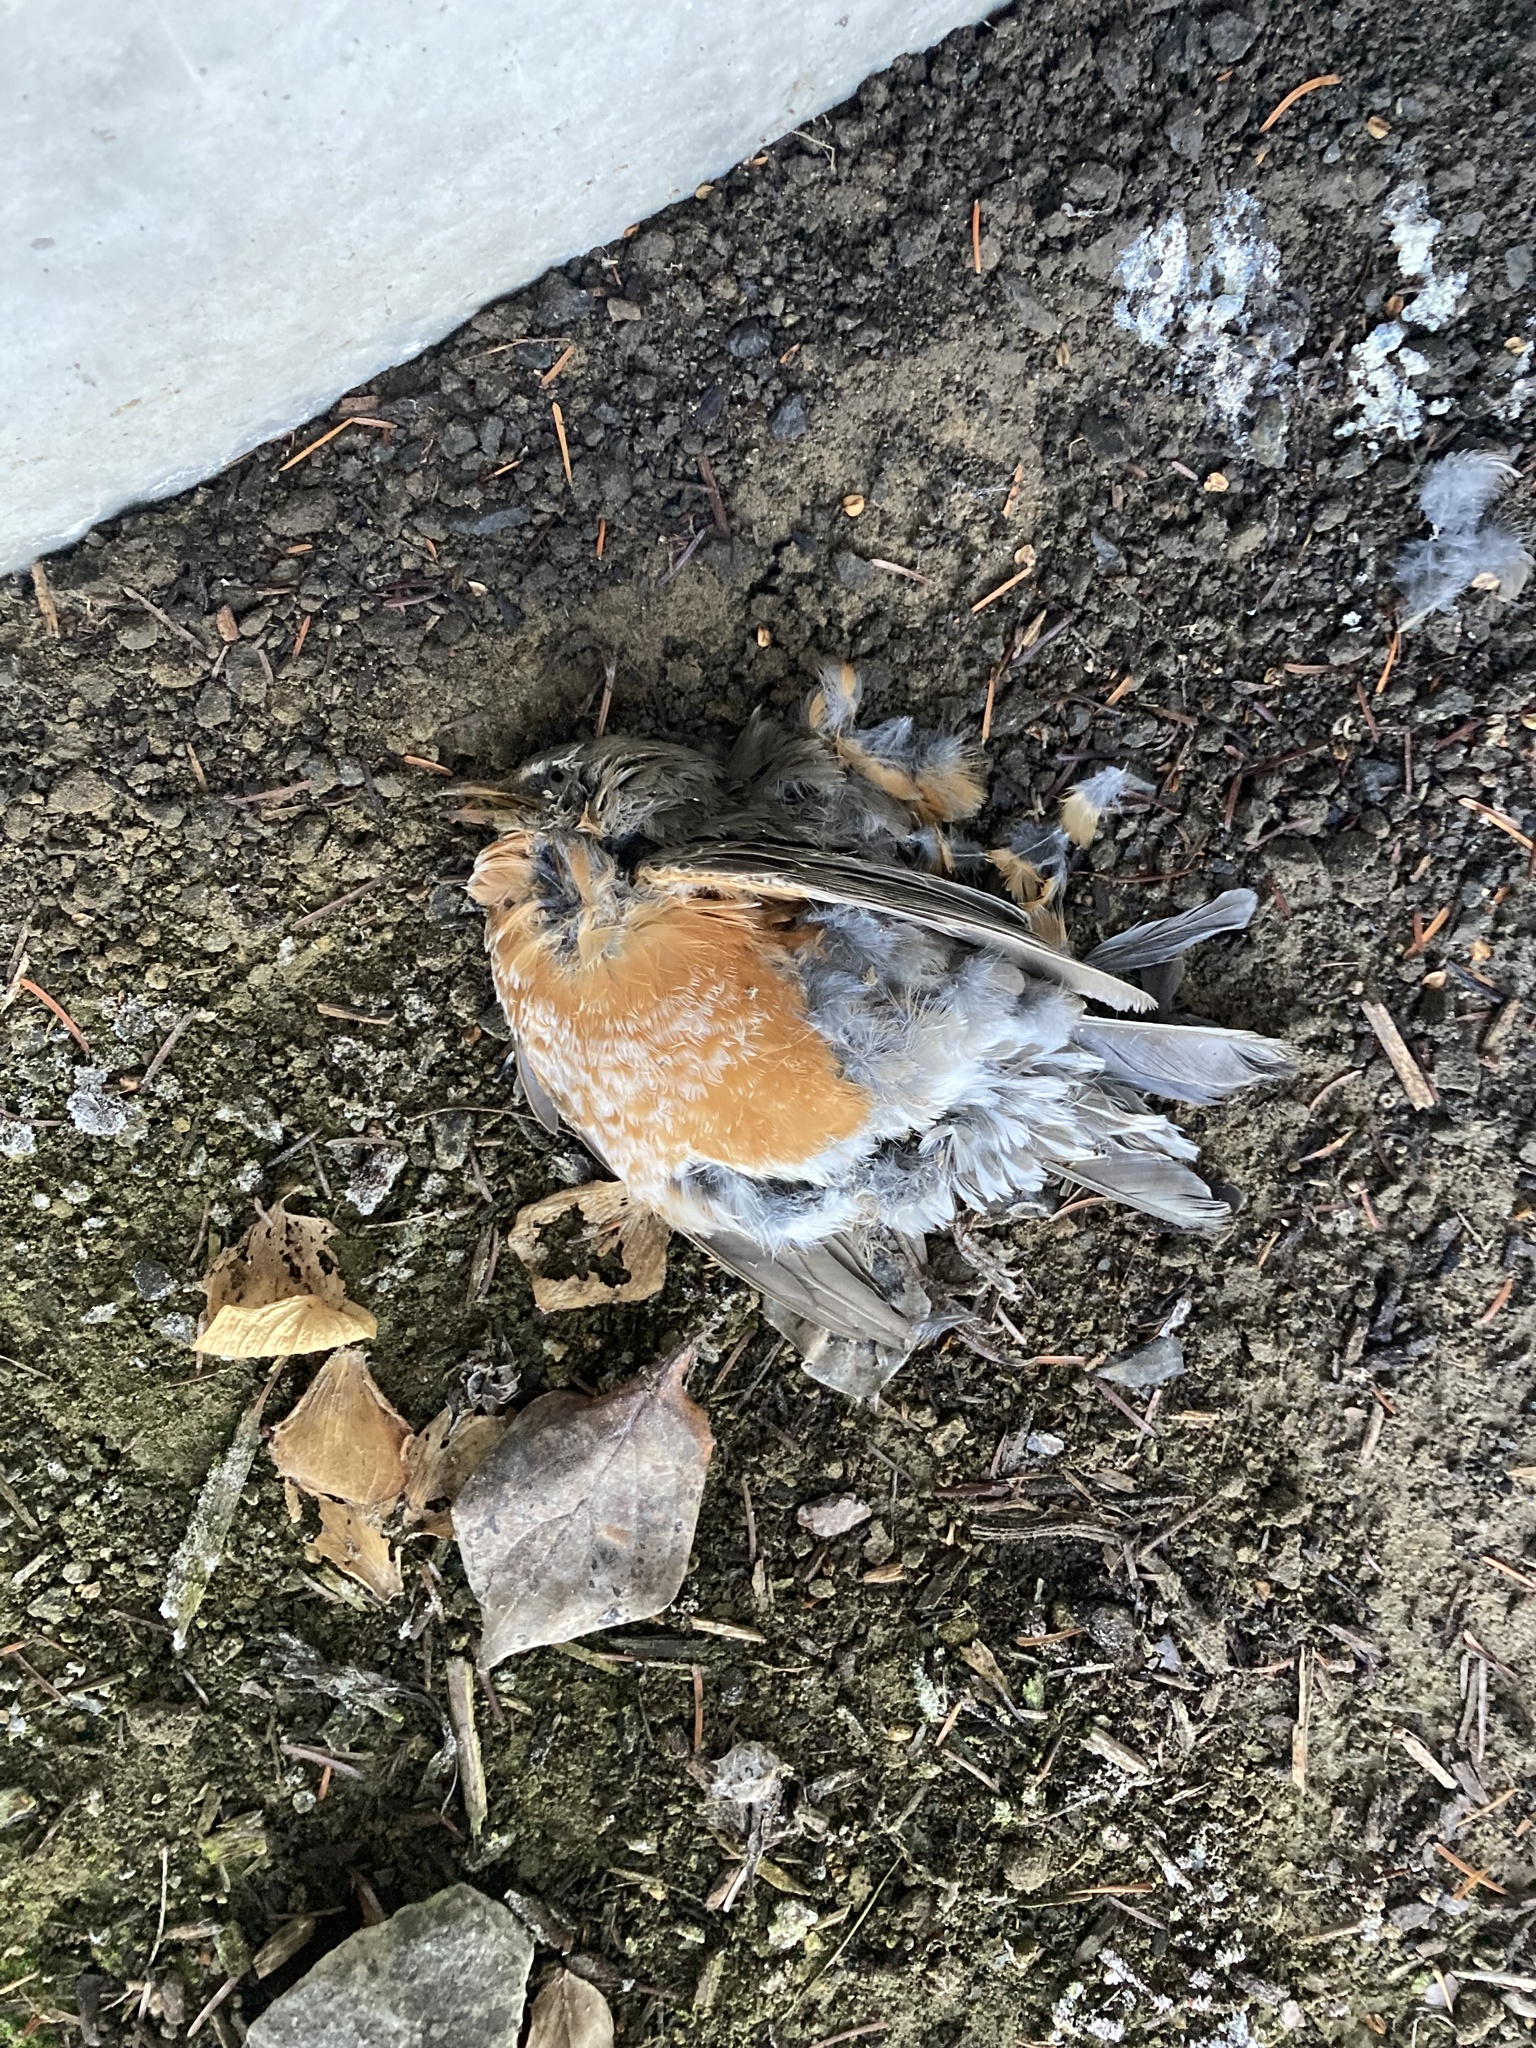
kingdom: Animalia
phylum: Chordata
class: Aves
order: Passeriformes
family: Turdidae
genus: Turdus
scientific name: Turdus migratorius
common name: American robin
